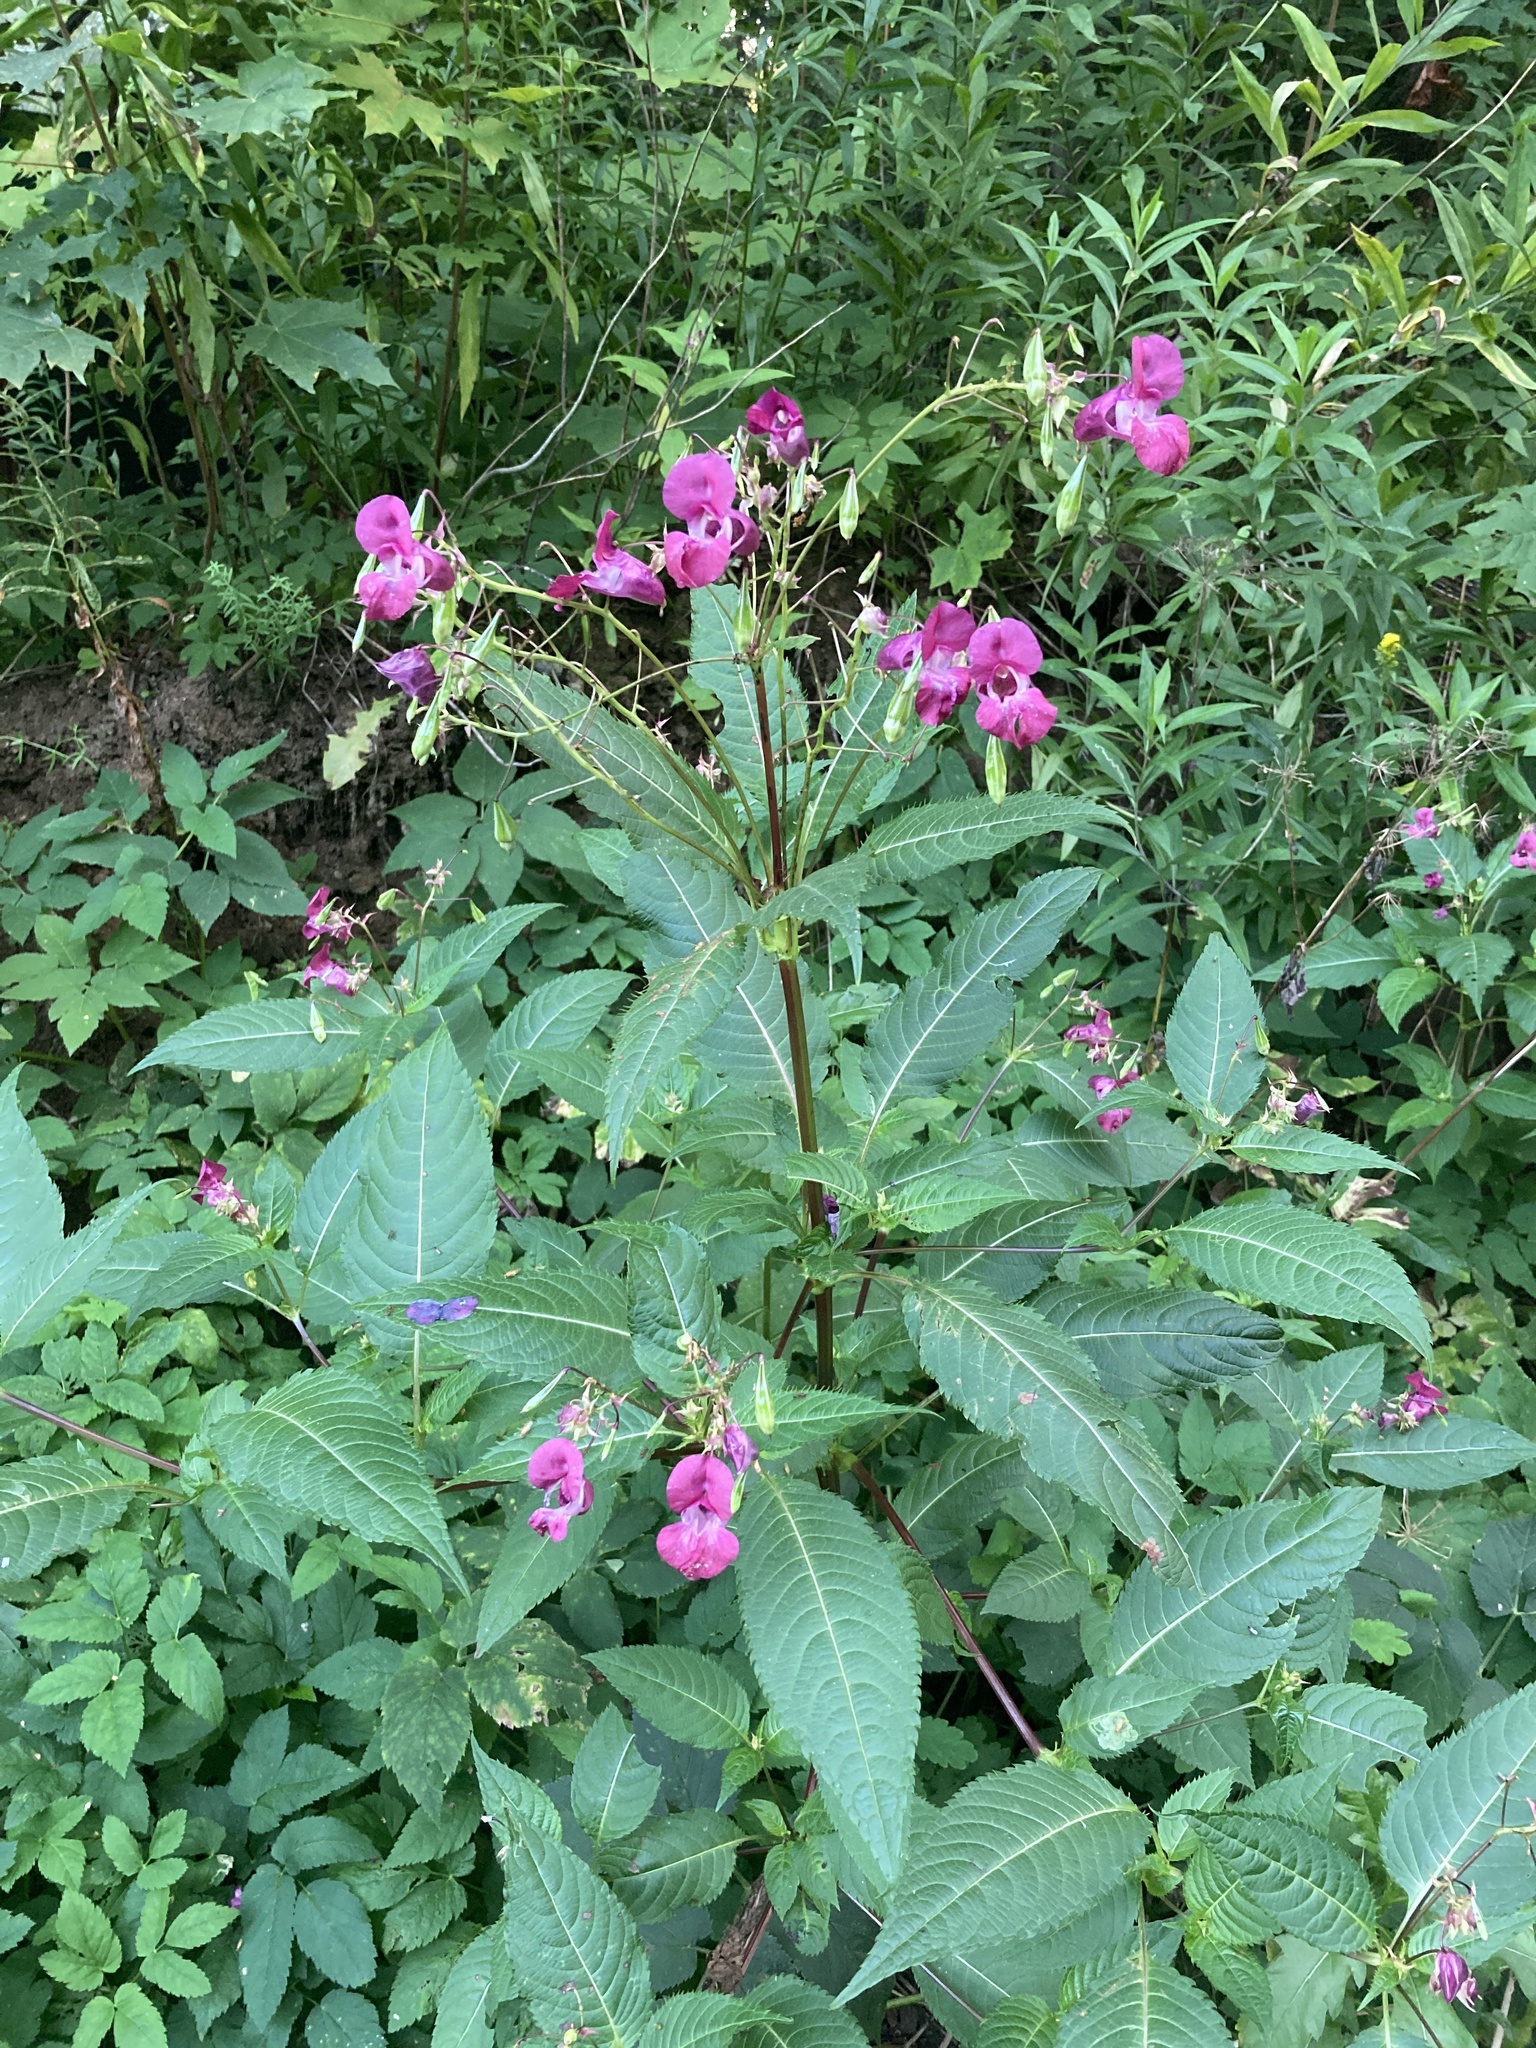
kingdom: Plantae
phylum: Tracheophyta
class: Magnoliopsida
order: Ericales
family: Balsaminaceae
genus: Impatiens
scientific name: Impatiens glandulifera
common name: Himalayan balsam
